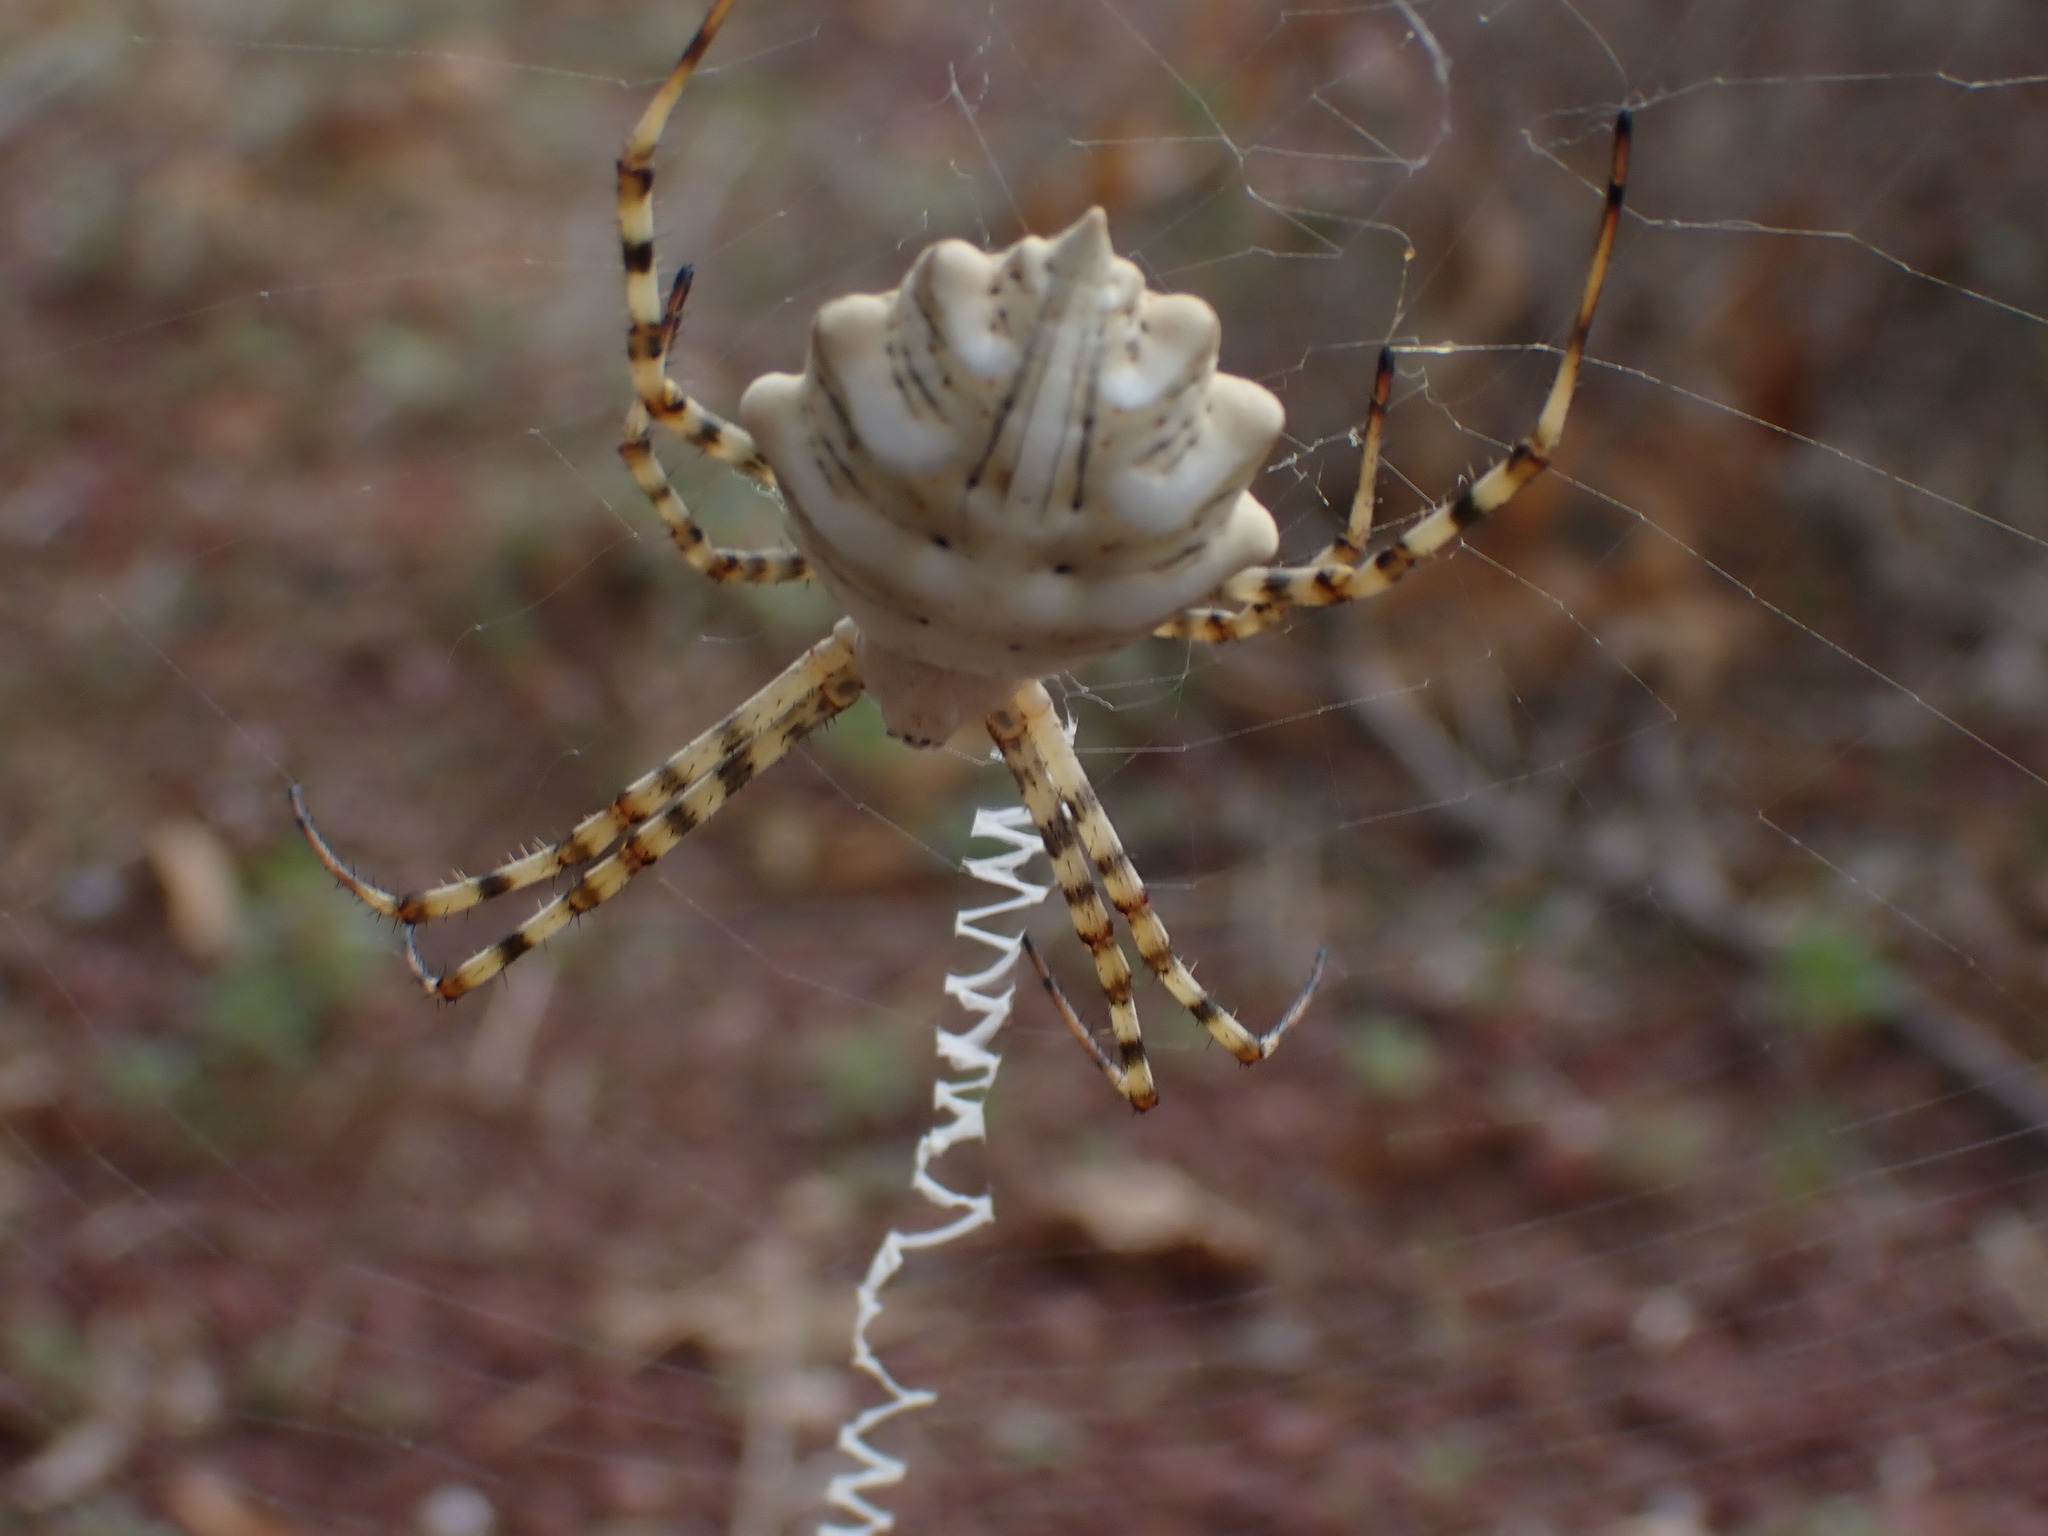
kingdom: Animalia
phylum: Arthropoda
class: Arachnida
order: Araneae
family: Araneidae
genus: Argiope
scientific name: Argiope lobata
